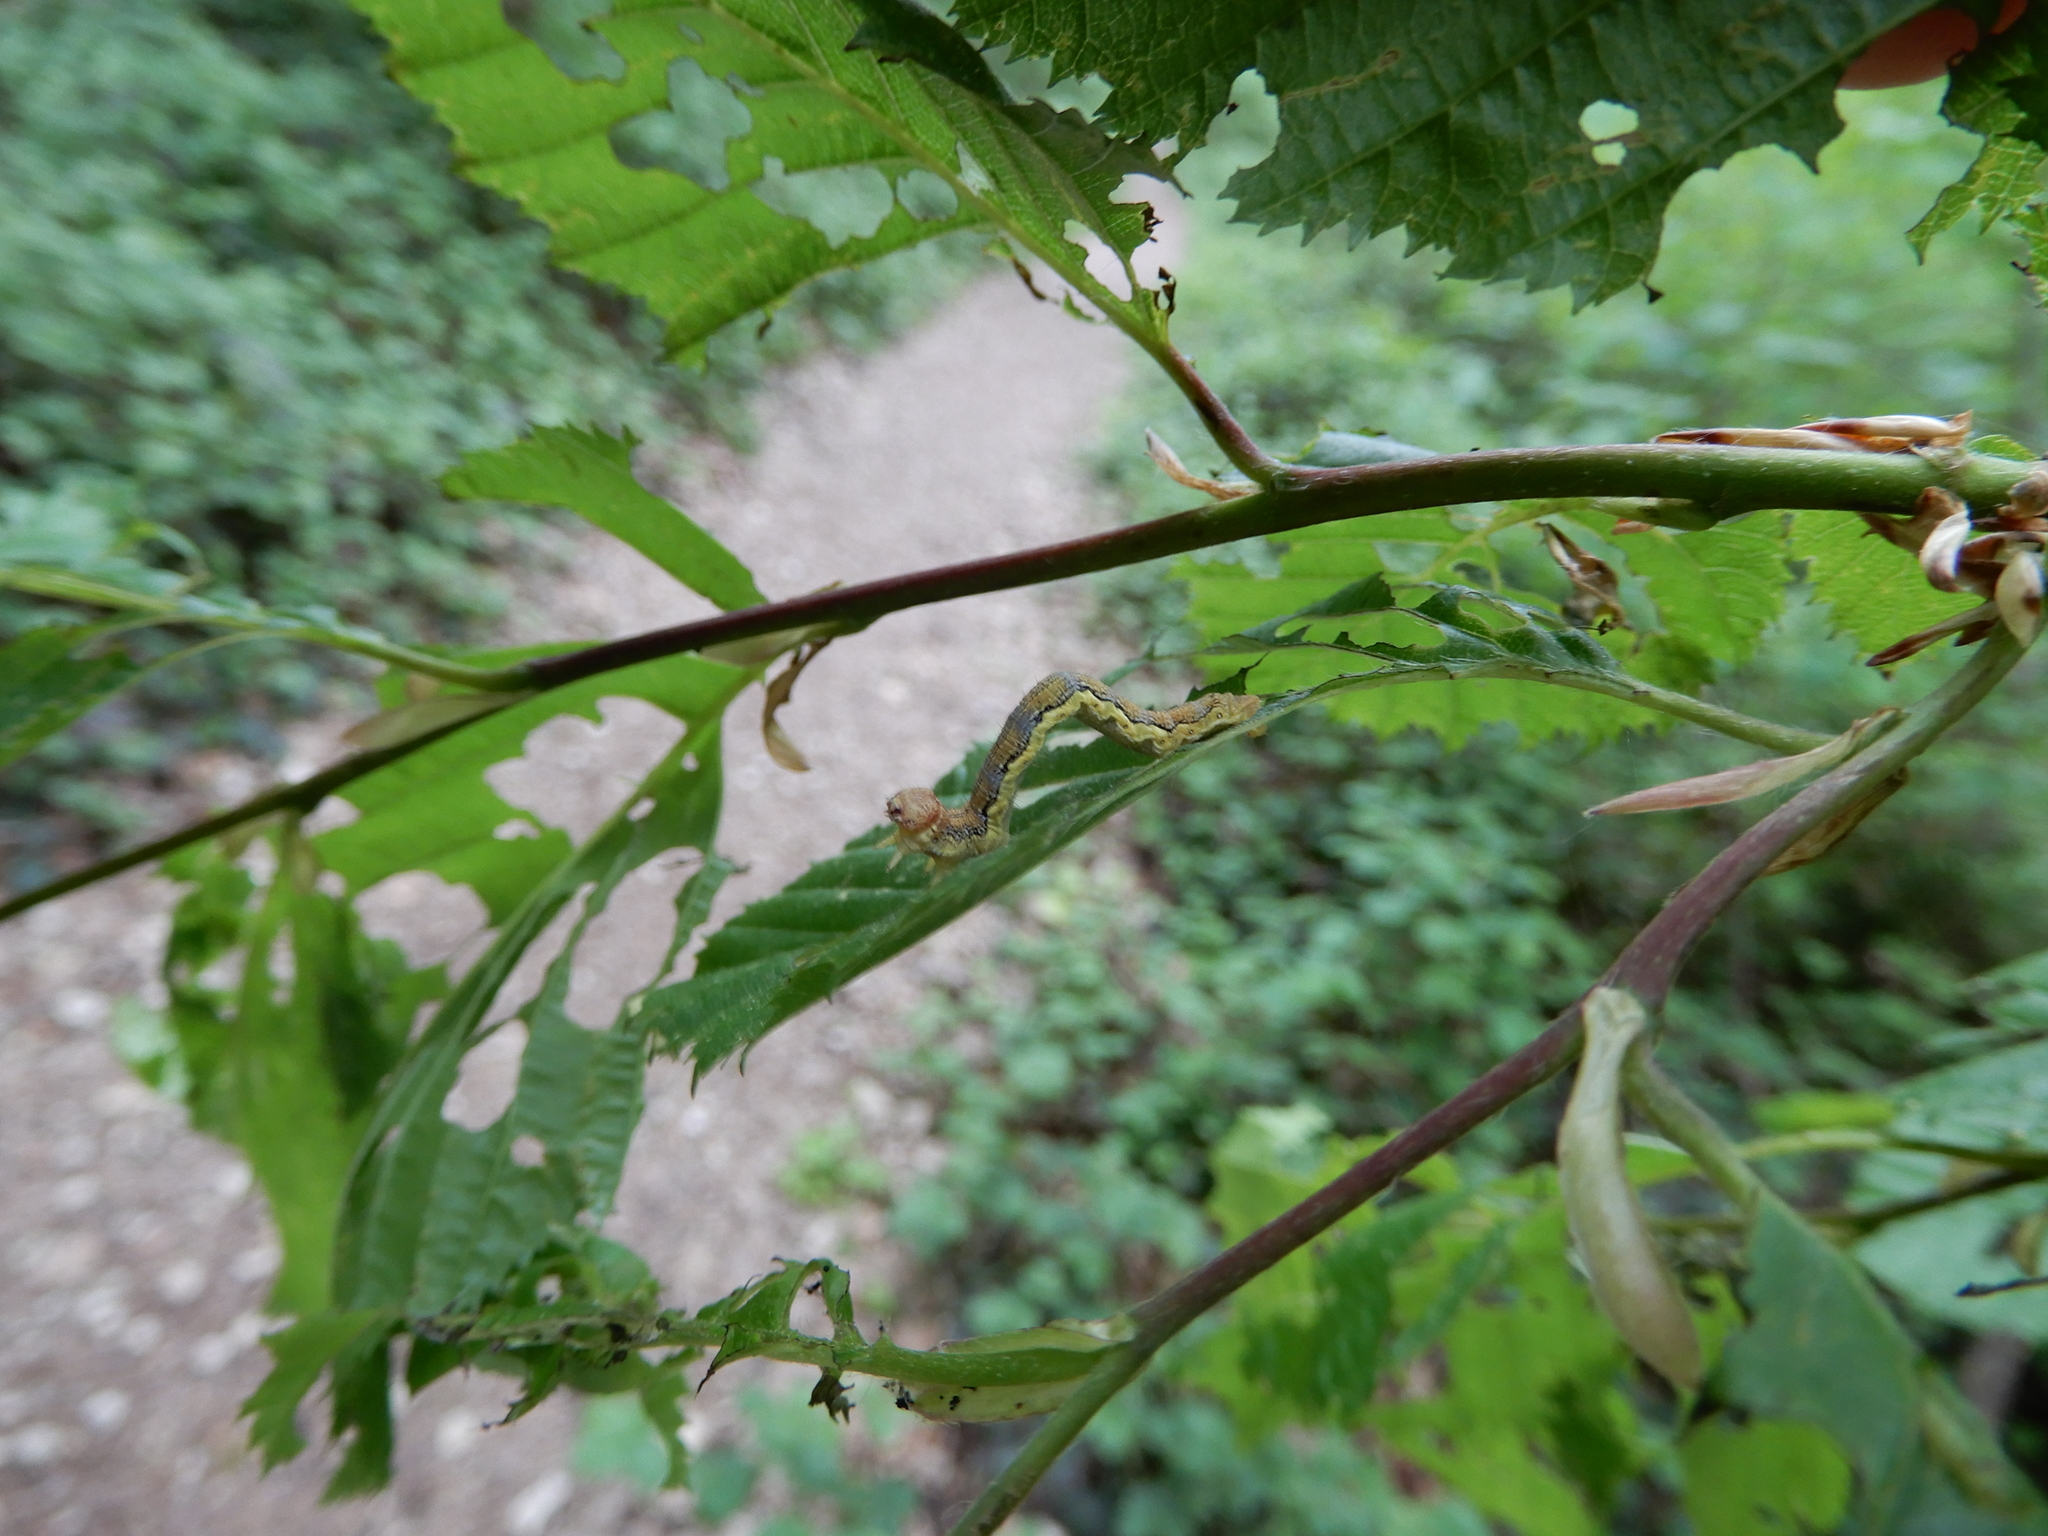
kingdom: Animalia
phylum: Arthropoda
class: Insecta
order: Lepidoptera
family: Geometridae
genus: Erannis
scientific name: Erannis defoliaria
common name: Mottled umber
